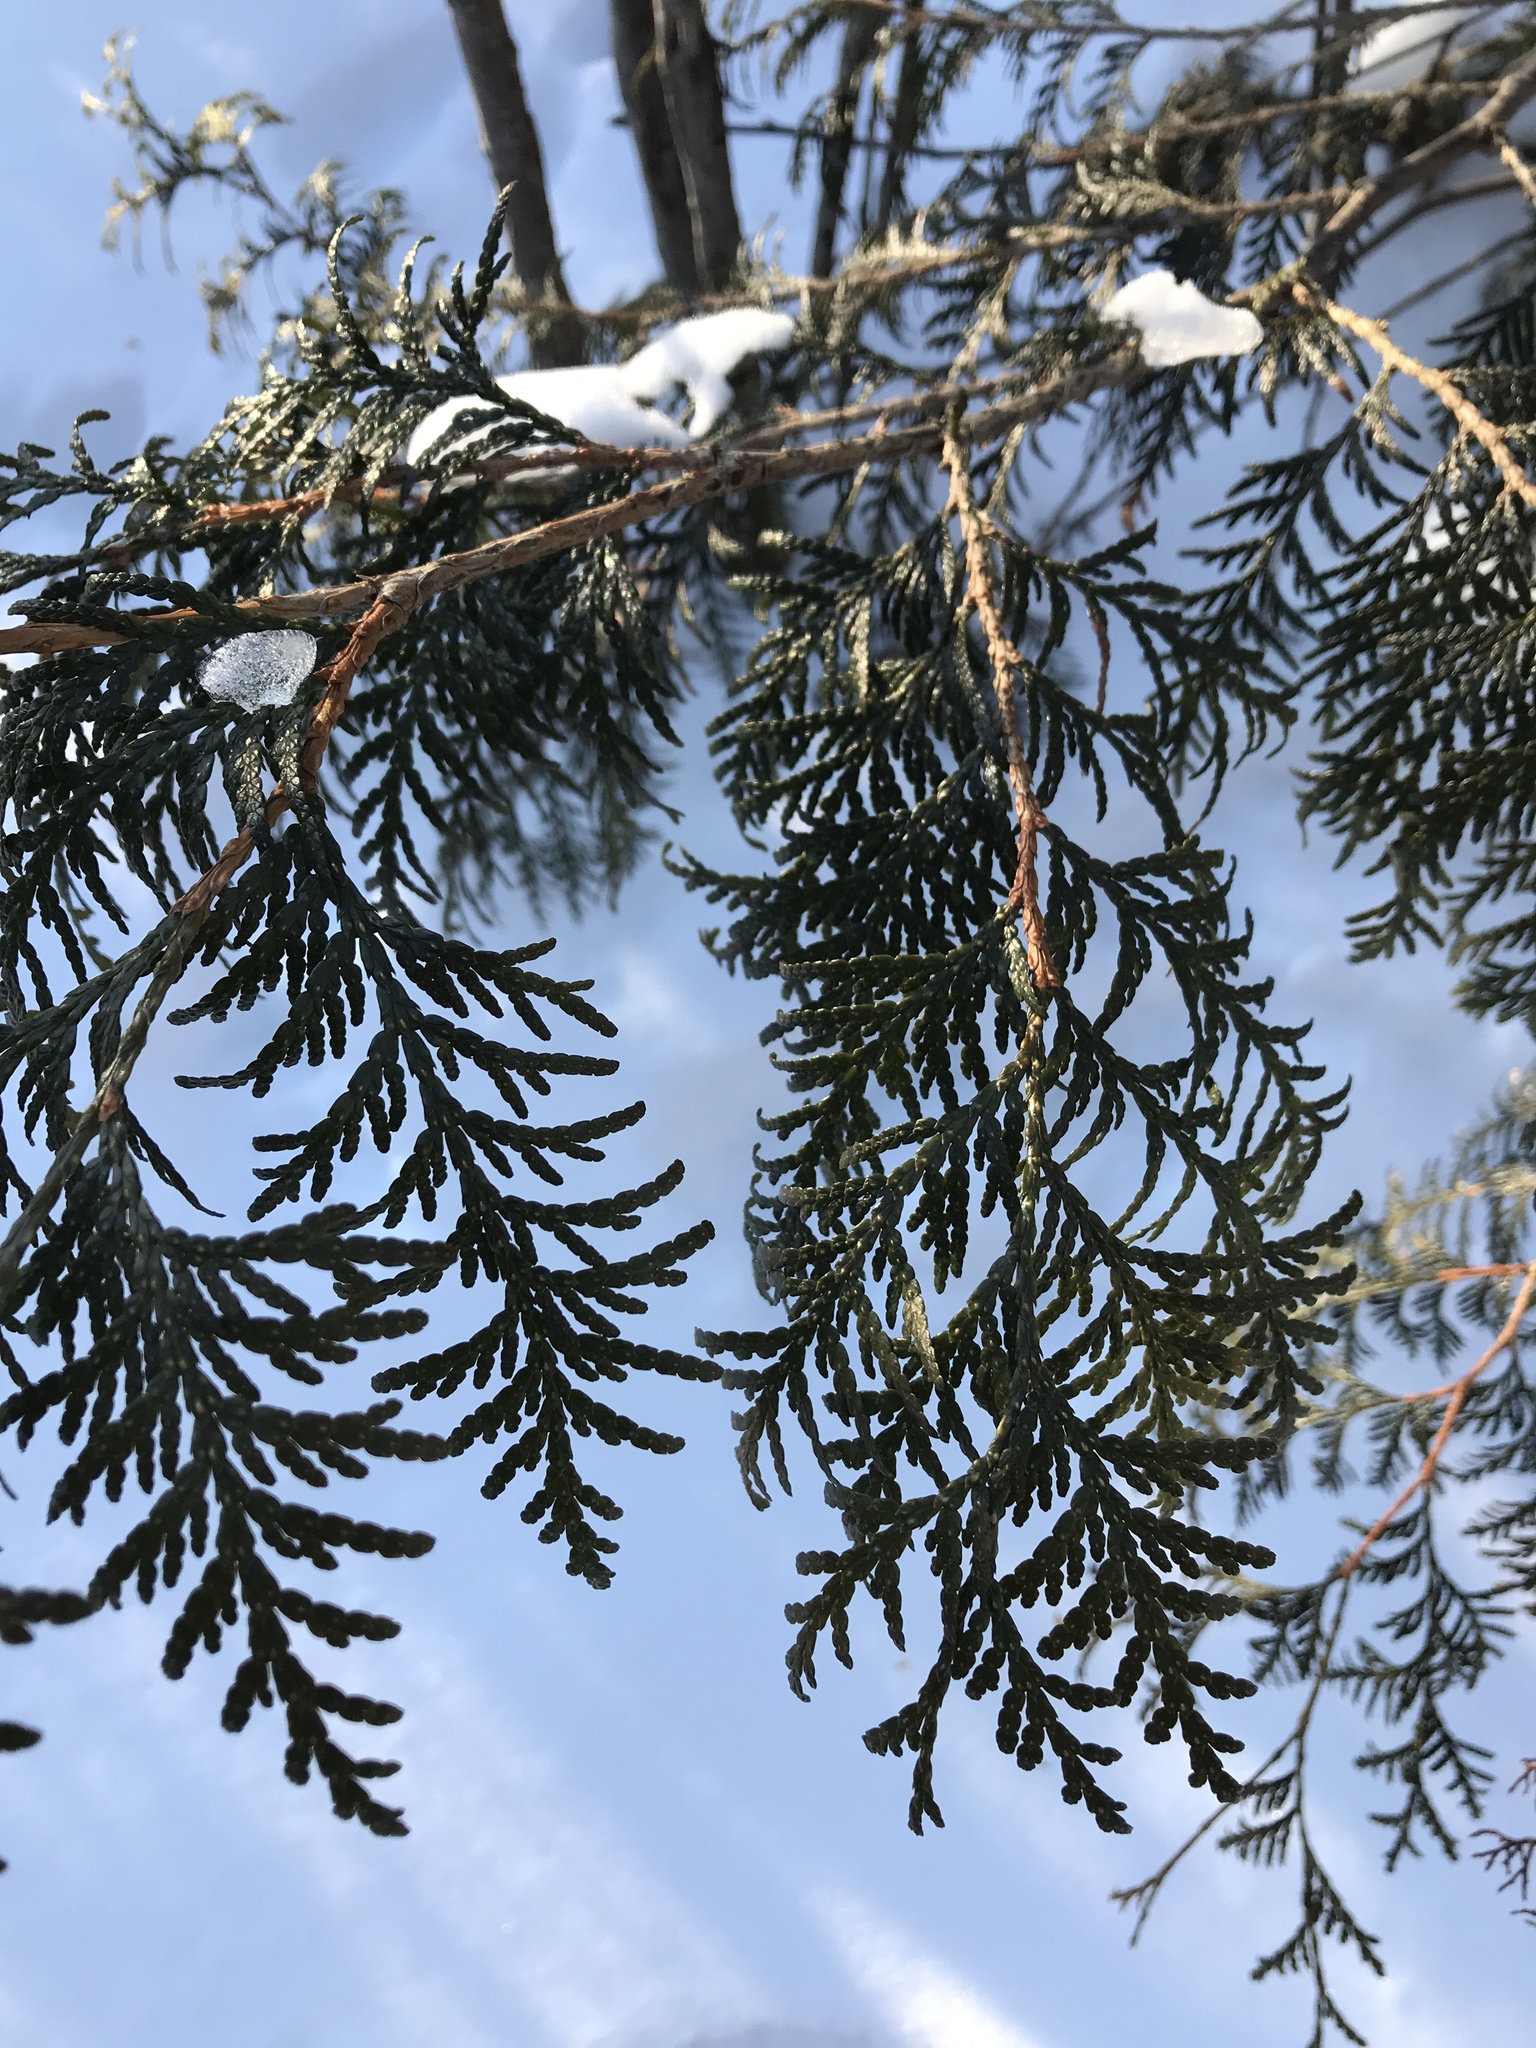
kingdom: Plantae
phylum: Tracheophyta
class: Pinopsida
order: Pinales
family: Cupressaceae
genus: Thuja
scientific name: Thuja occidentalis
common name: Northern white-cedar
